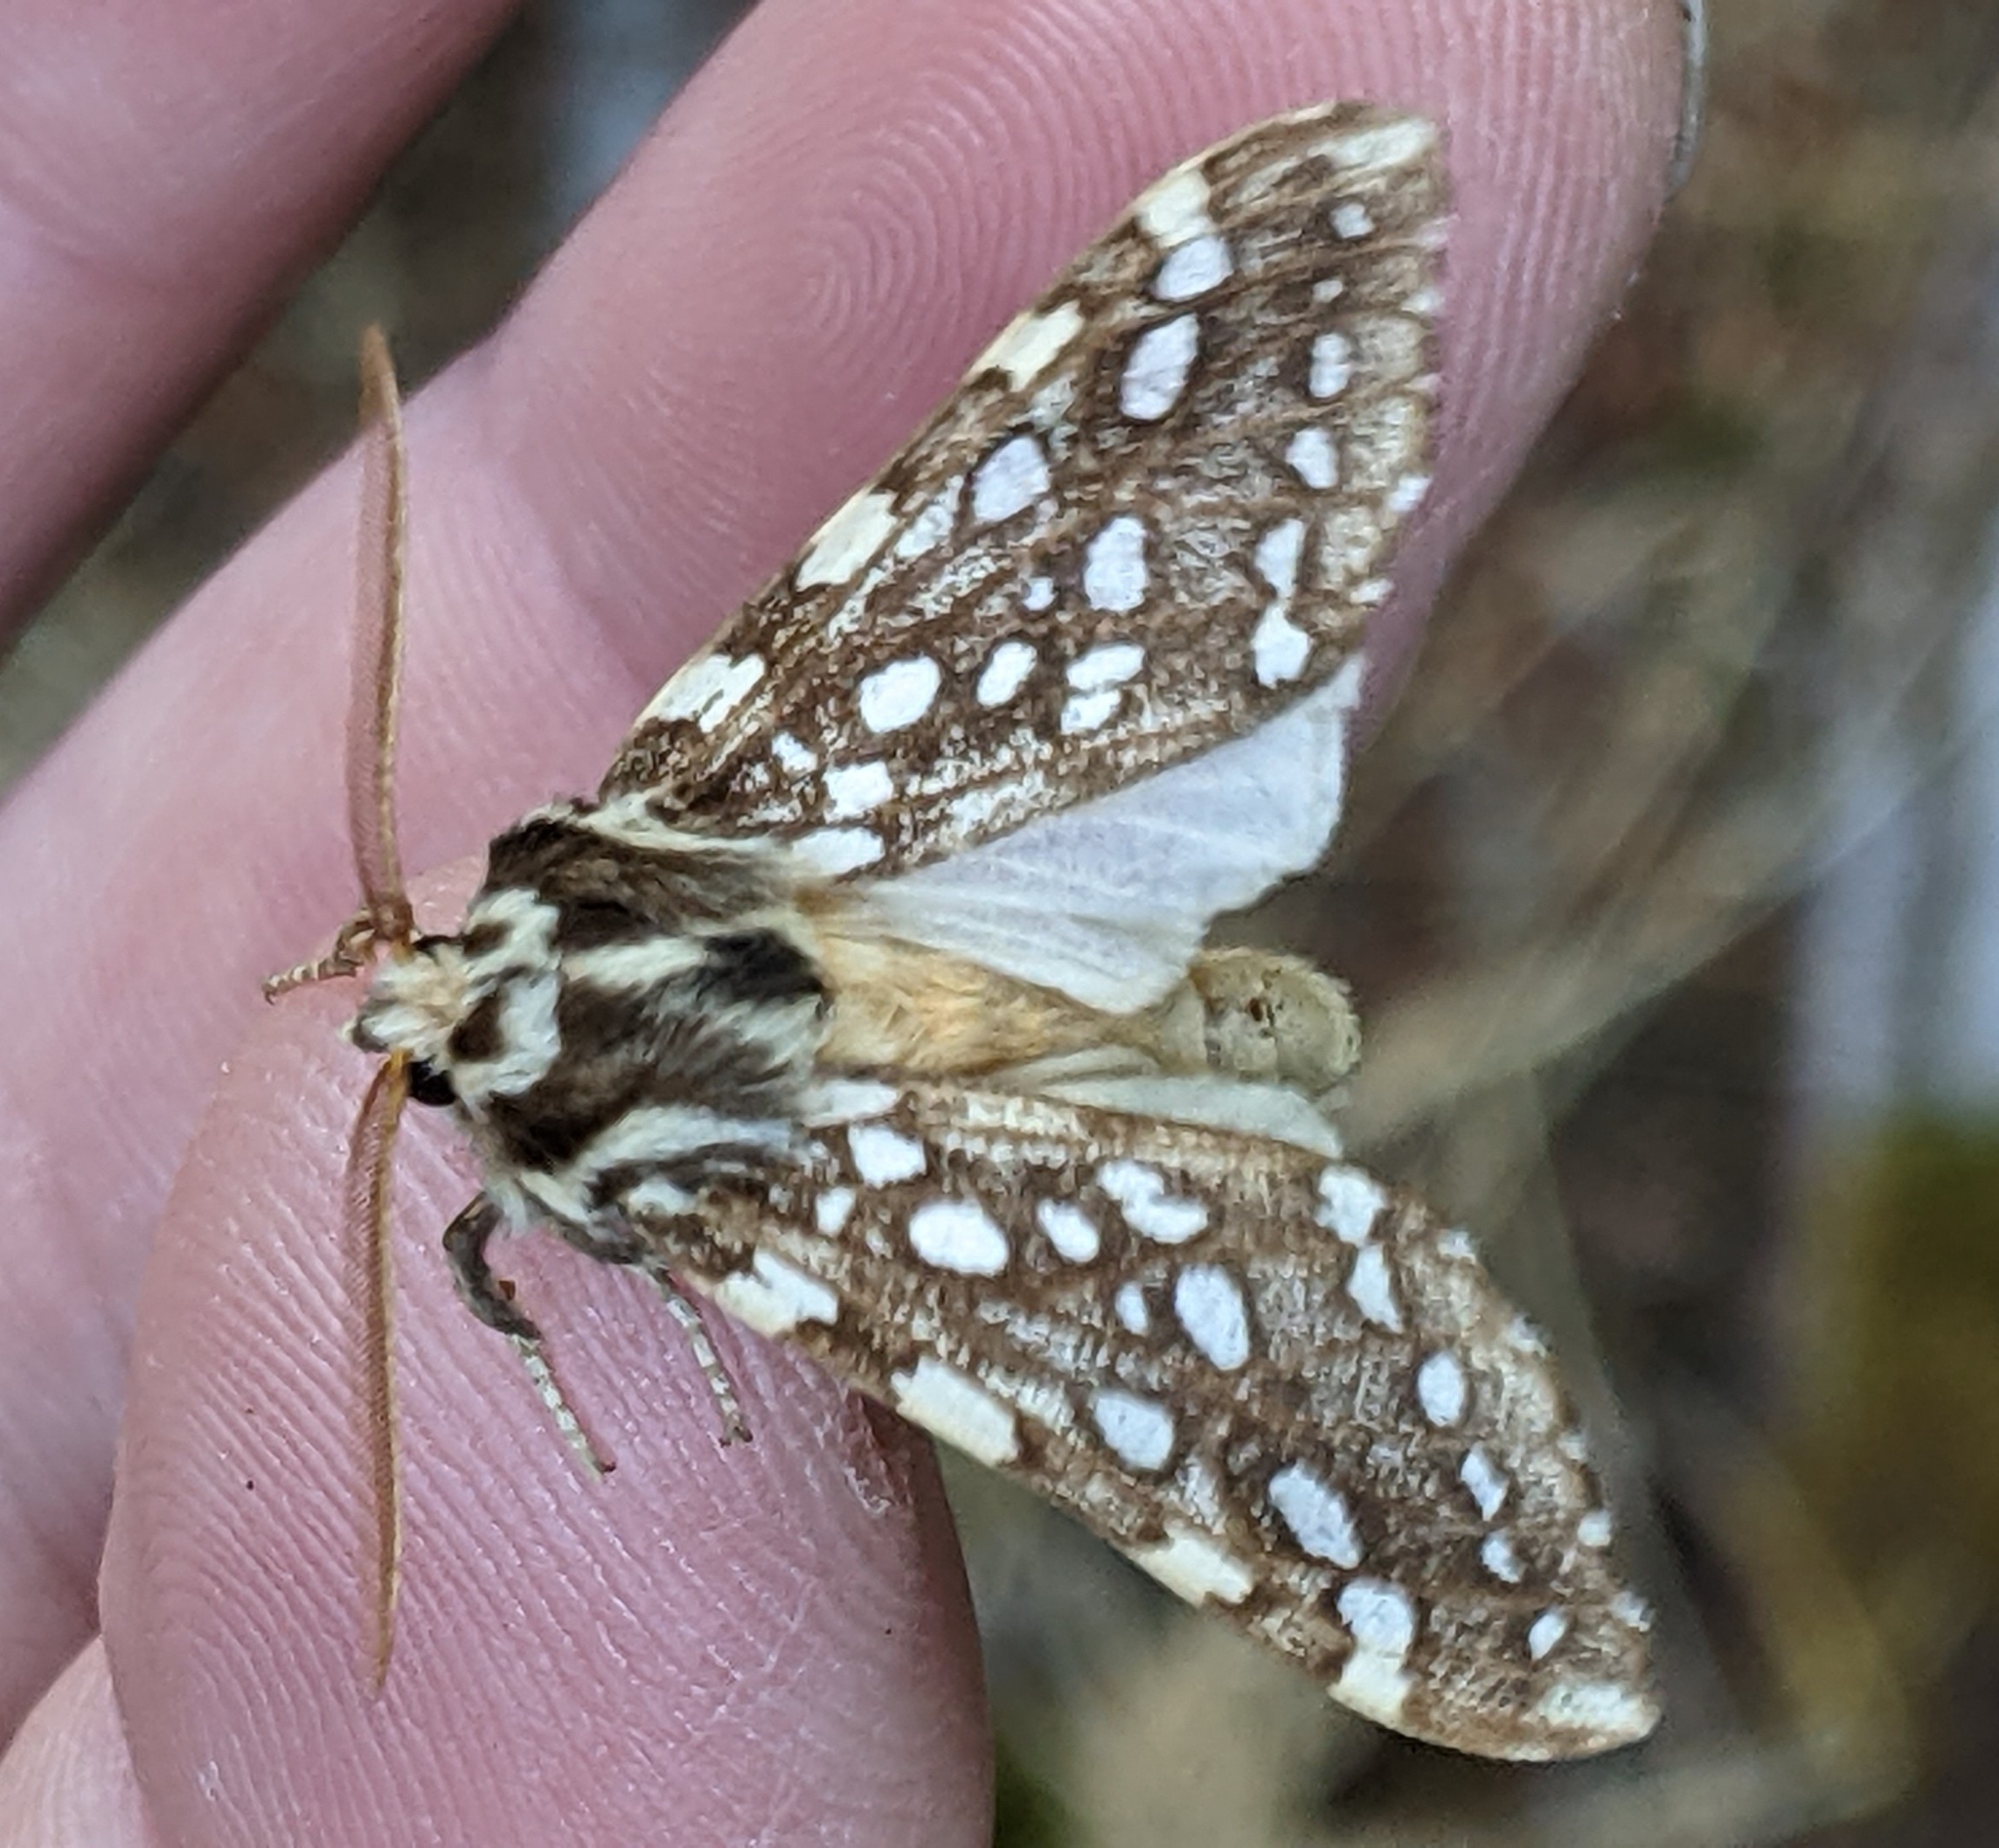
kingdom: Animalia
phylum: Arthropoda
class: Insecta
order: Lepidoptera
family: Erebidae
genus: Lophocampa
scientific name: Lophocampa argentata
